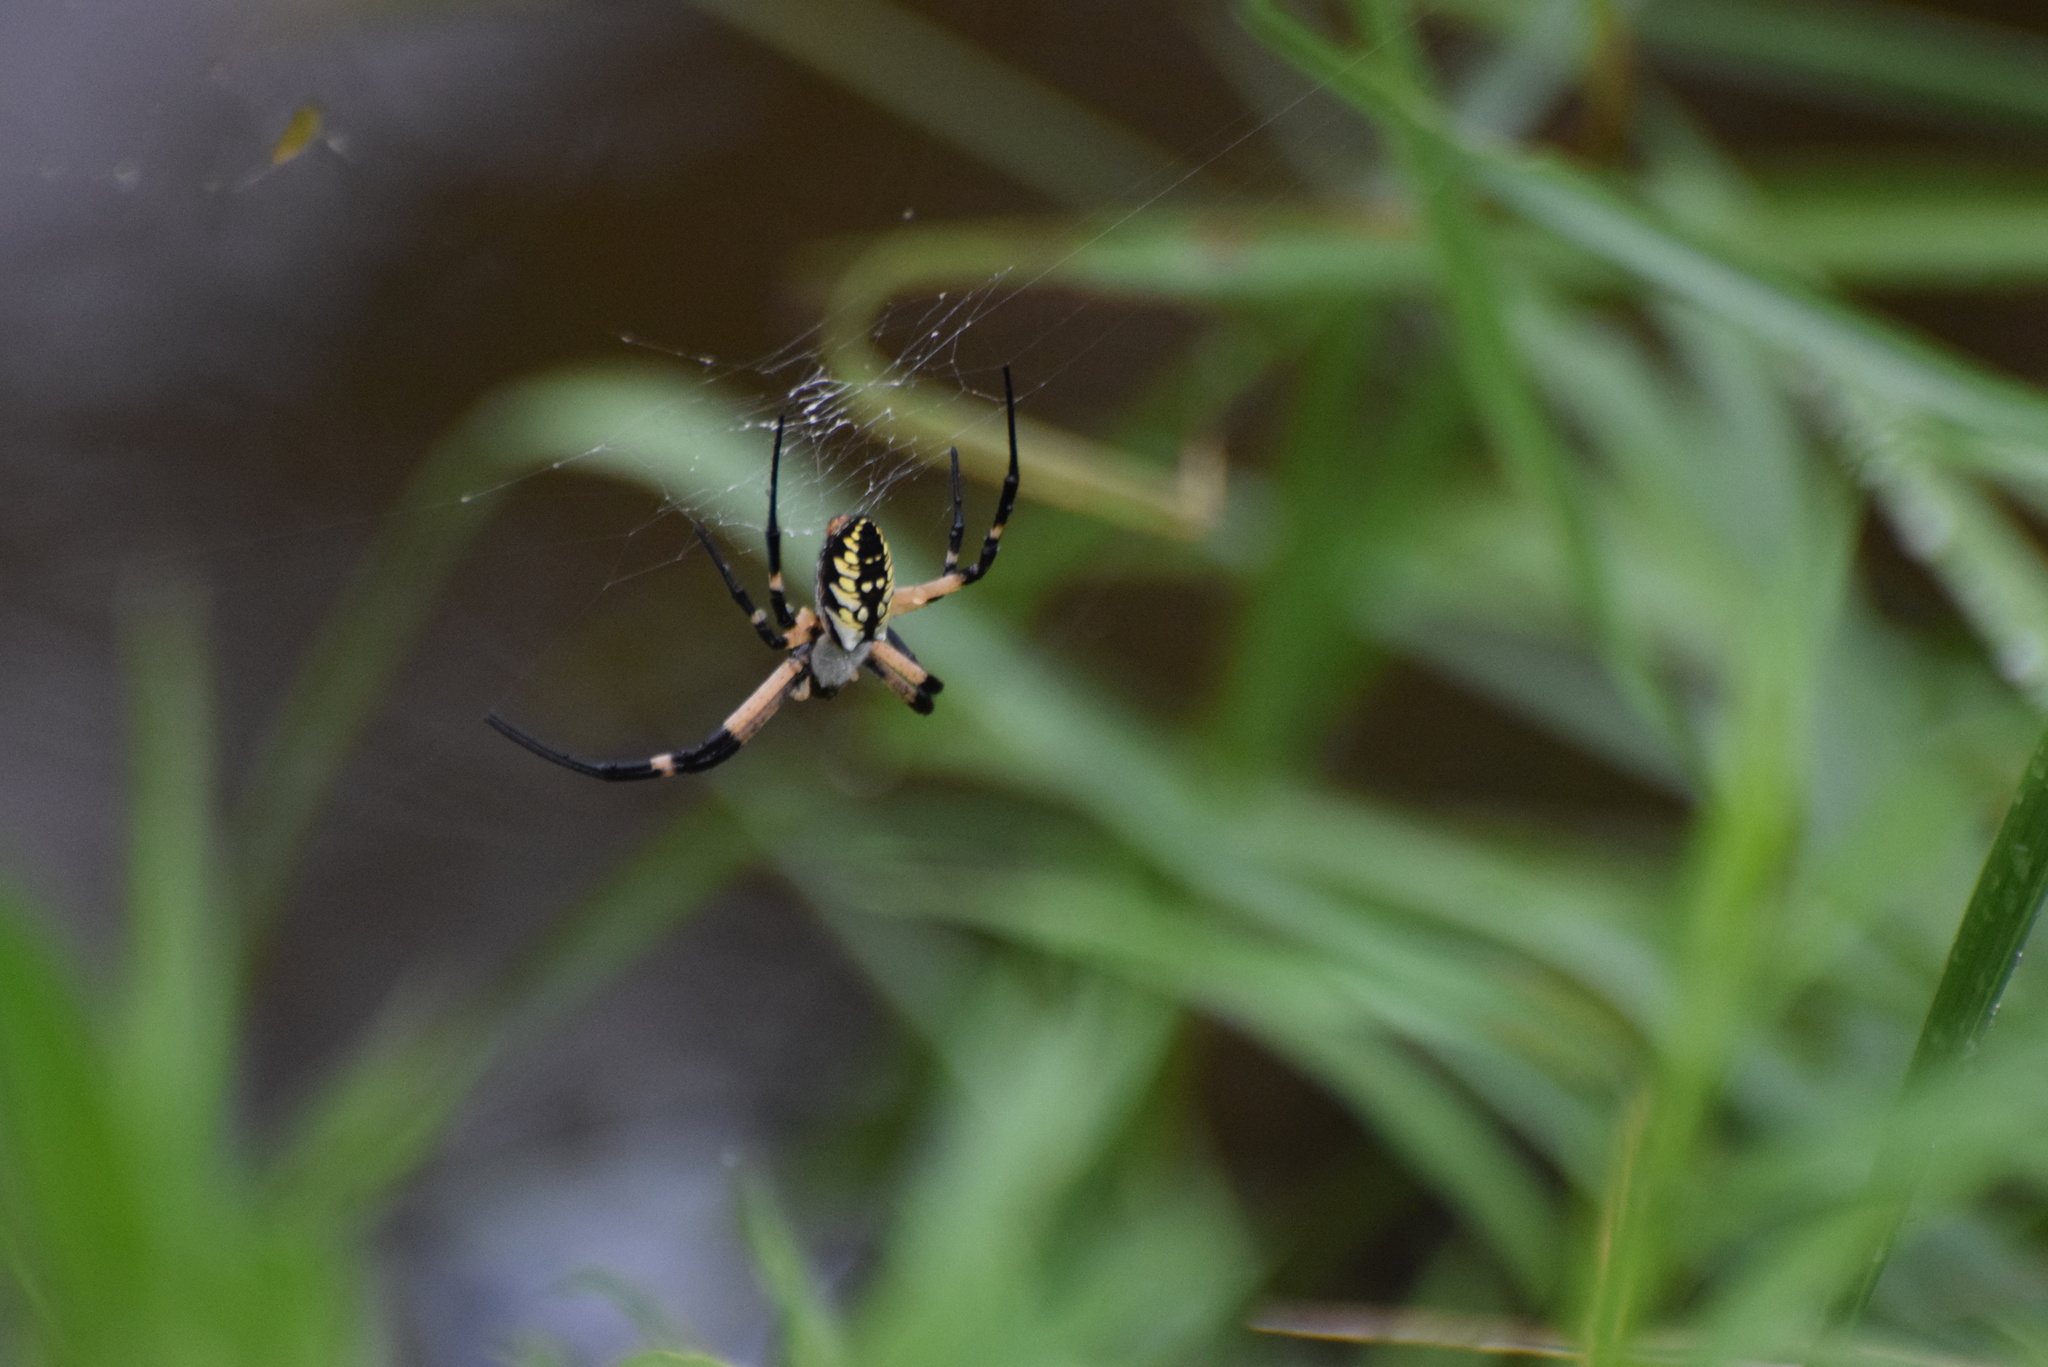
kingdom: Animalia
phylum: Arthropoda
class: Arachnida
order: Araneae
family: Araneidae
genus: Argiope
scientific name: Argiope aurantia
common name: Orb weavers
